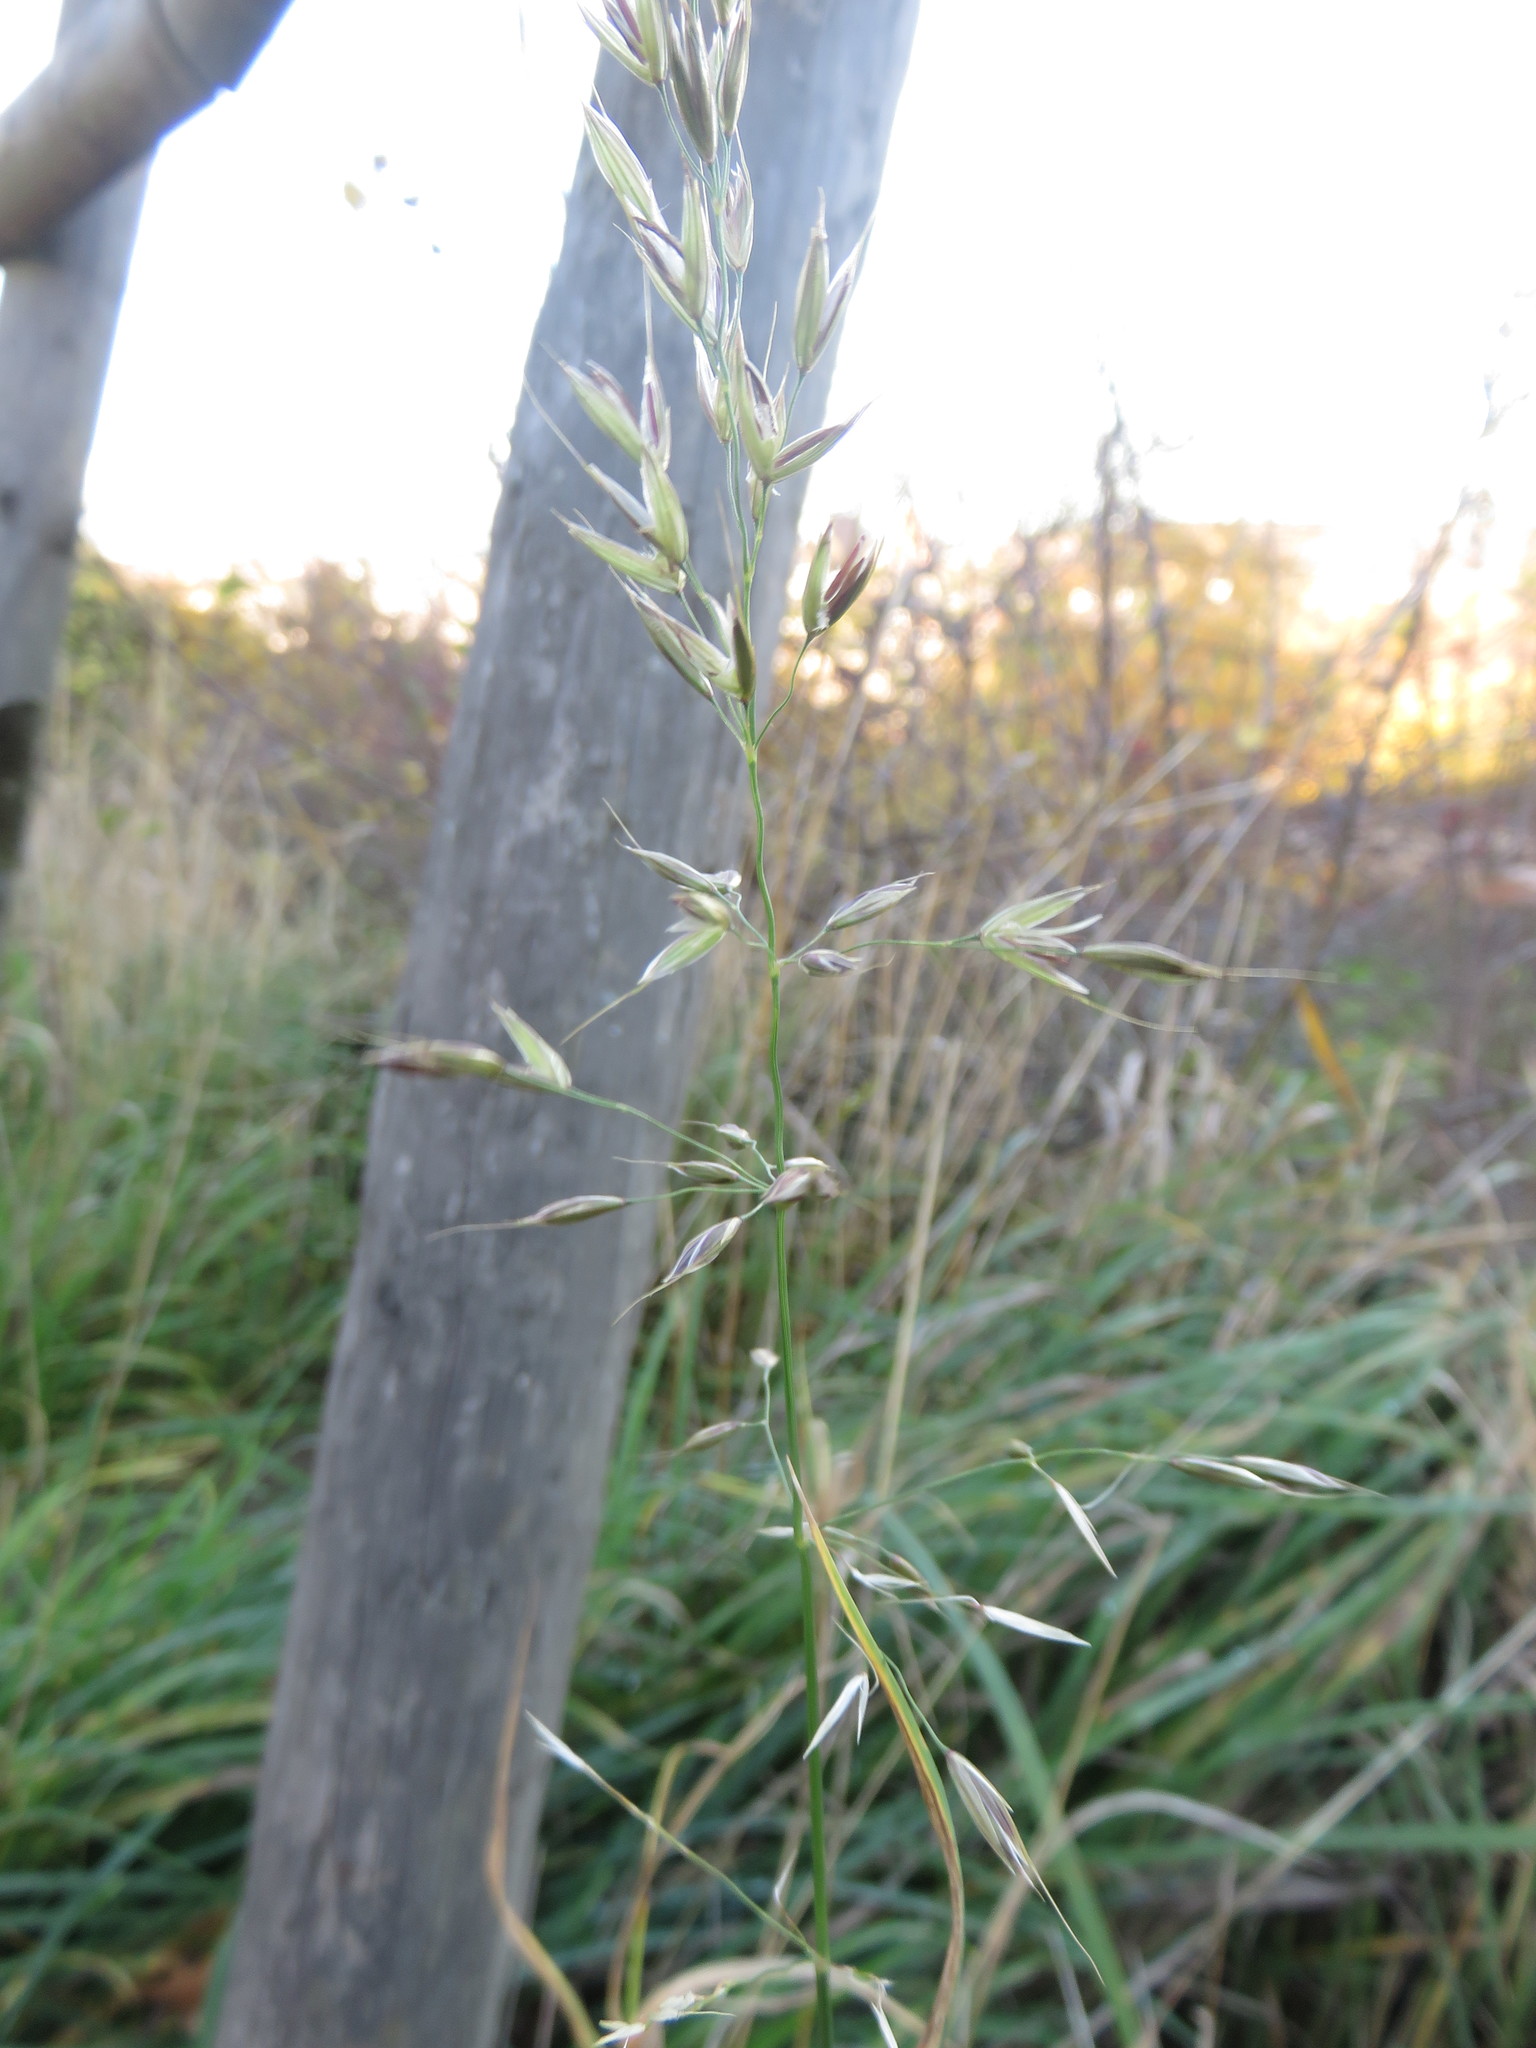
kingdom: Plantae
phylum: Tracheophyta
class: Liliopsida
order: Poales
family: Poaceae
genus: Arrhenatherum
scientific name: Arrhenatherum elatius
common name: Tall oatgrass
